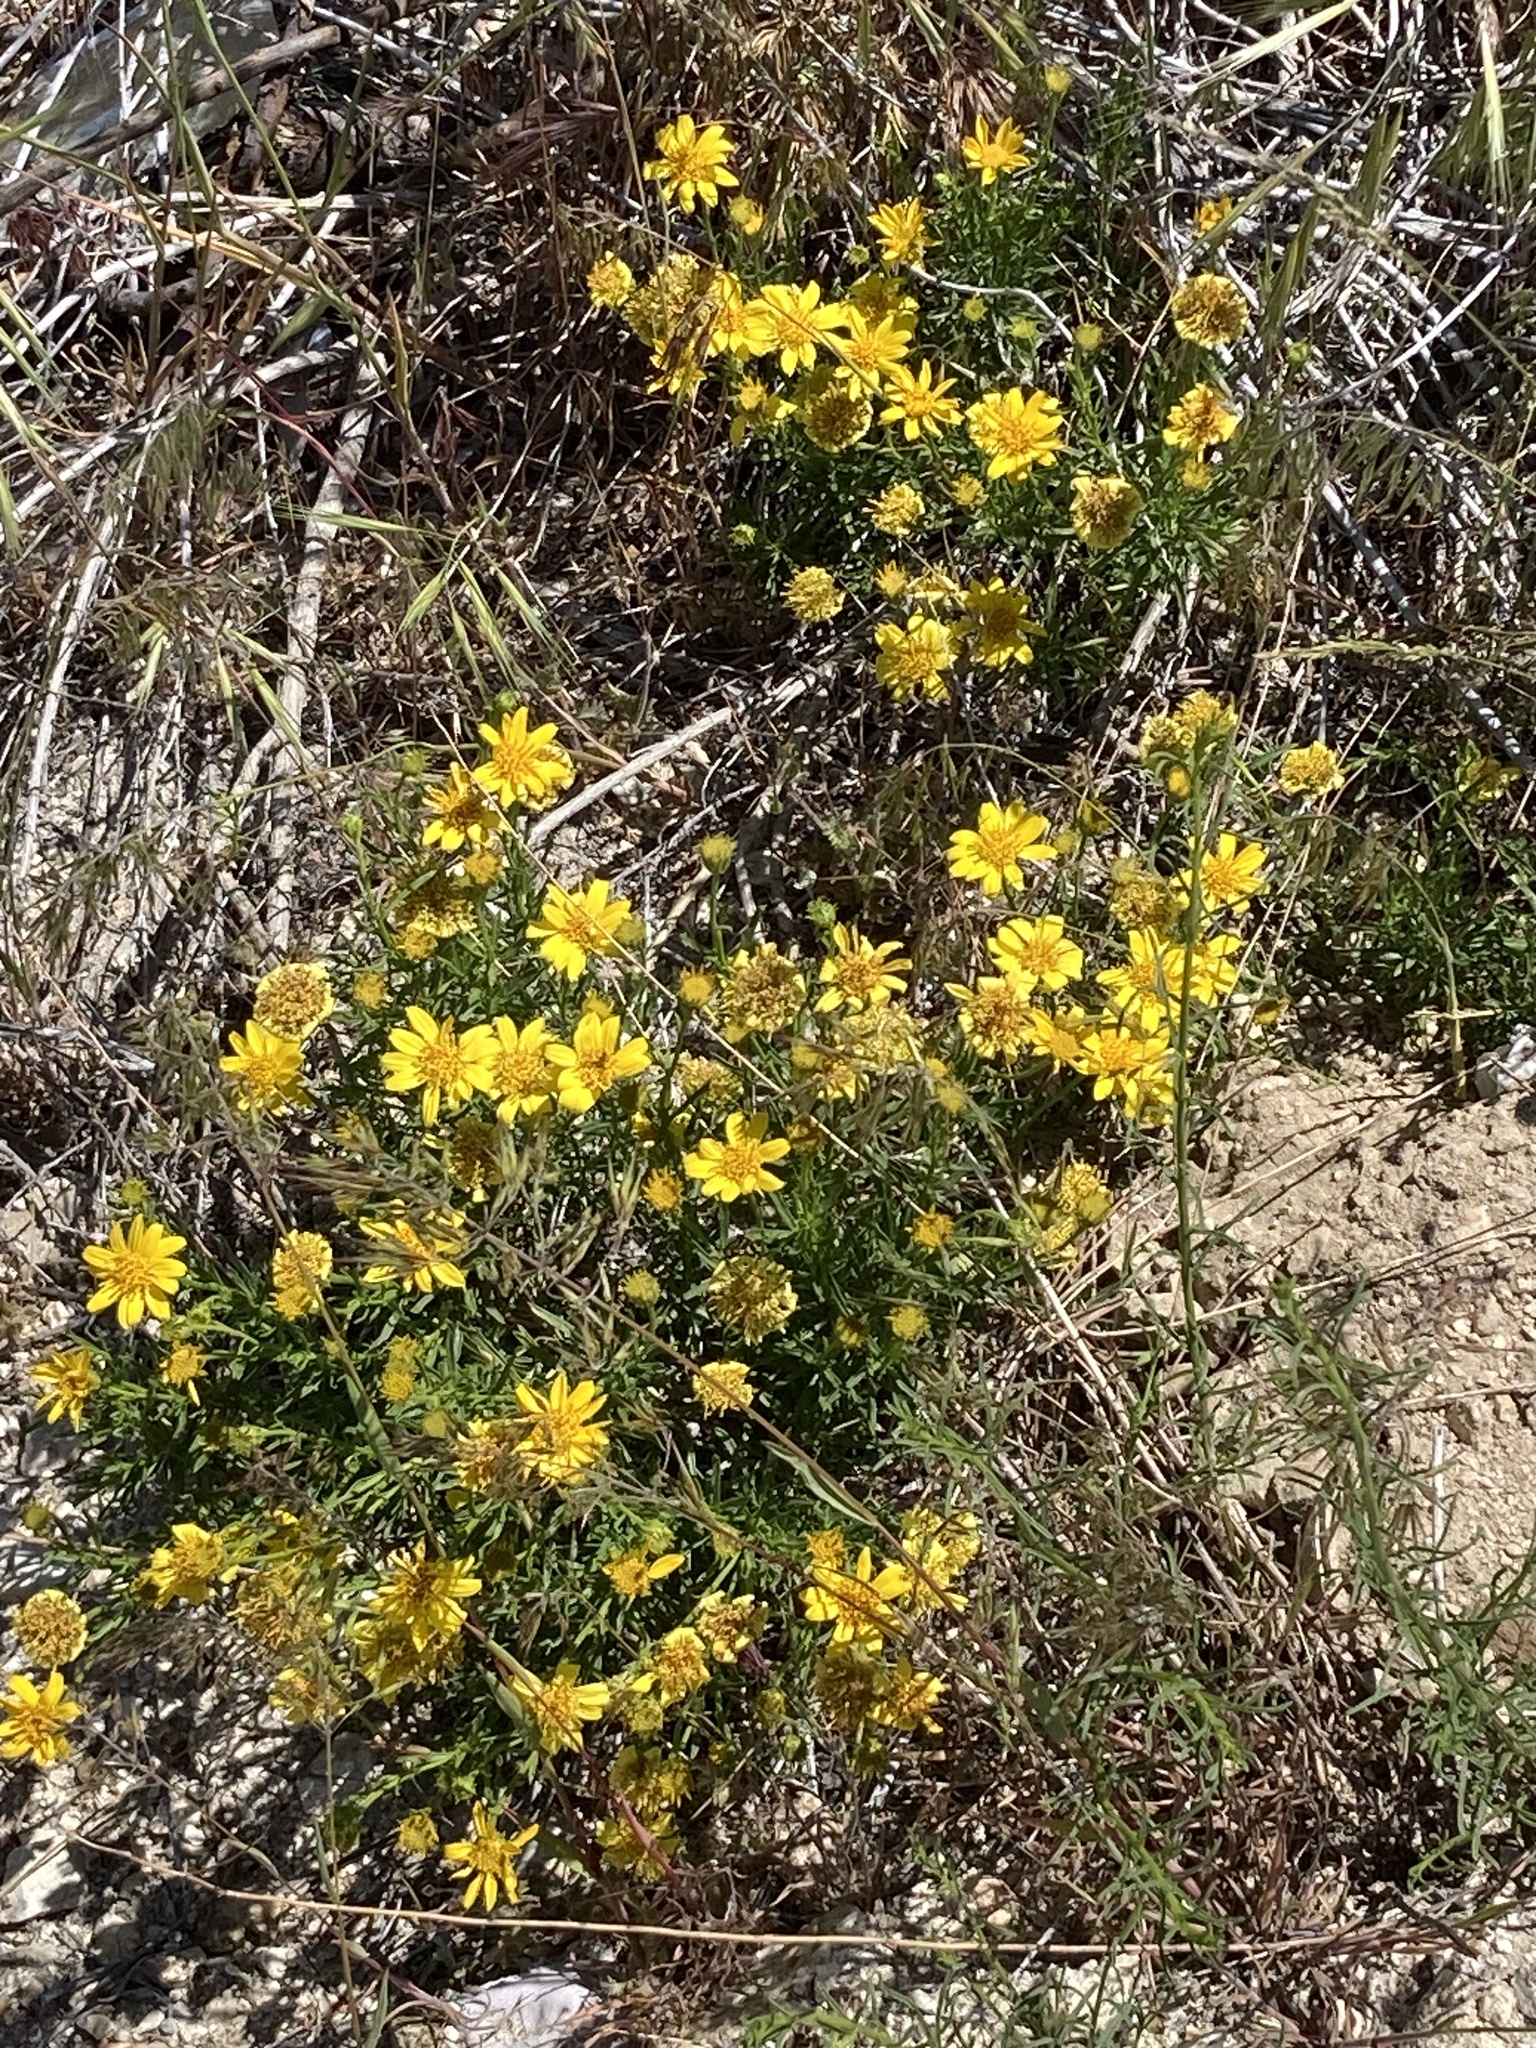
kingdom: Plantae
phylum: Tracheophyta
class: Magnoliopsida
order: Asterales
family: Asteraceae
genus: Ericameria
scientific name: Ericameria linearifolia
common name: Interior goldenbush
